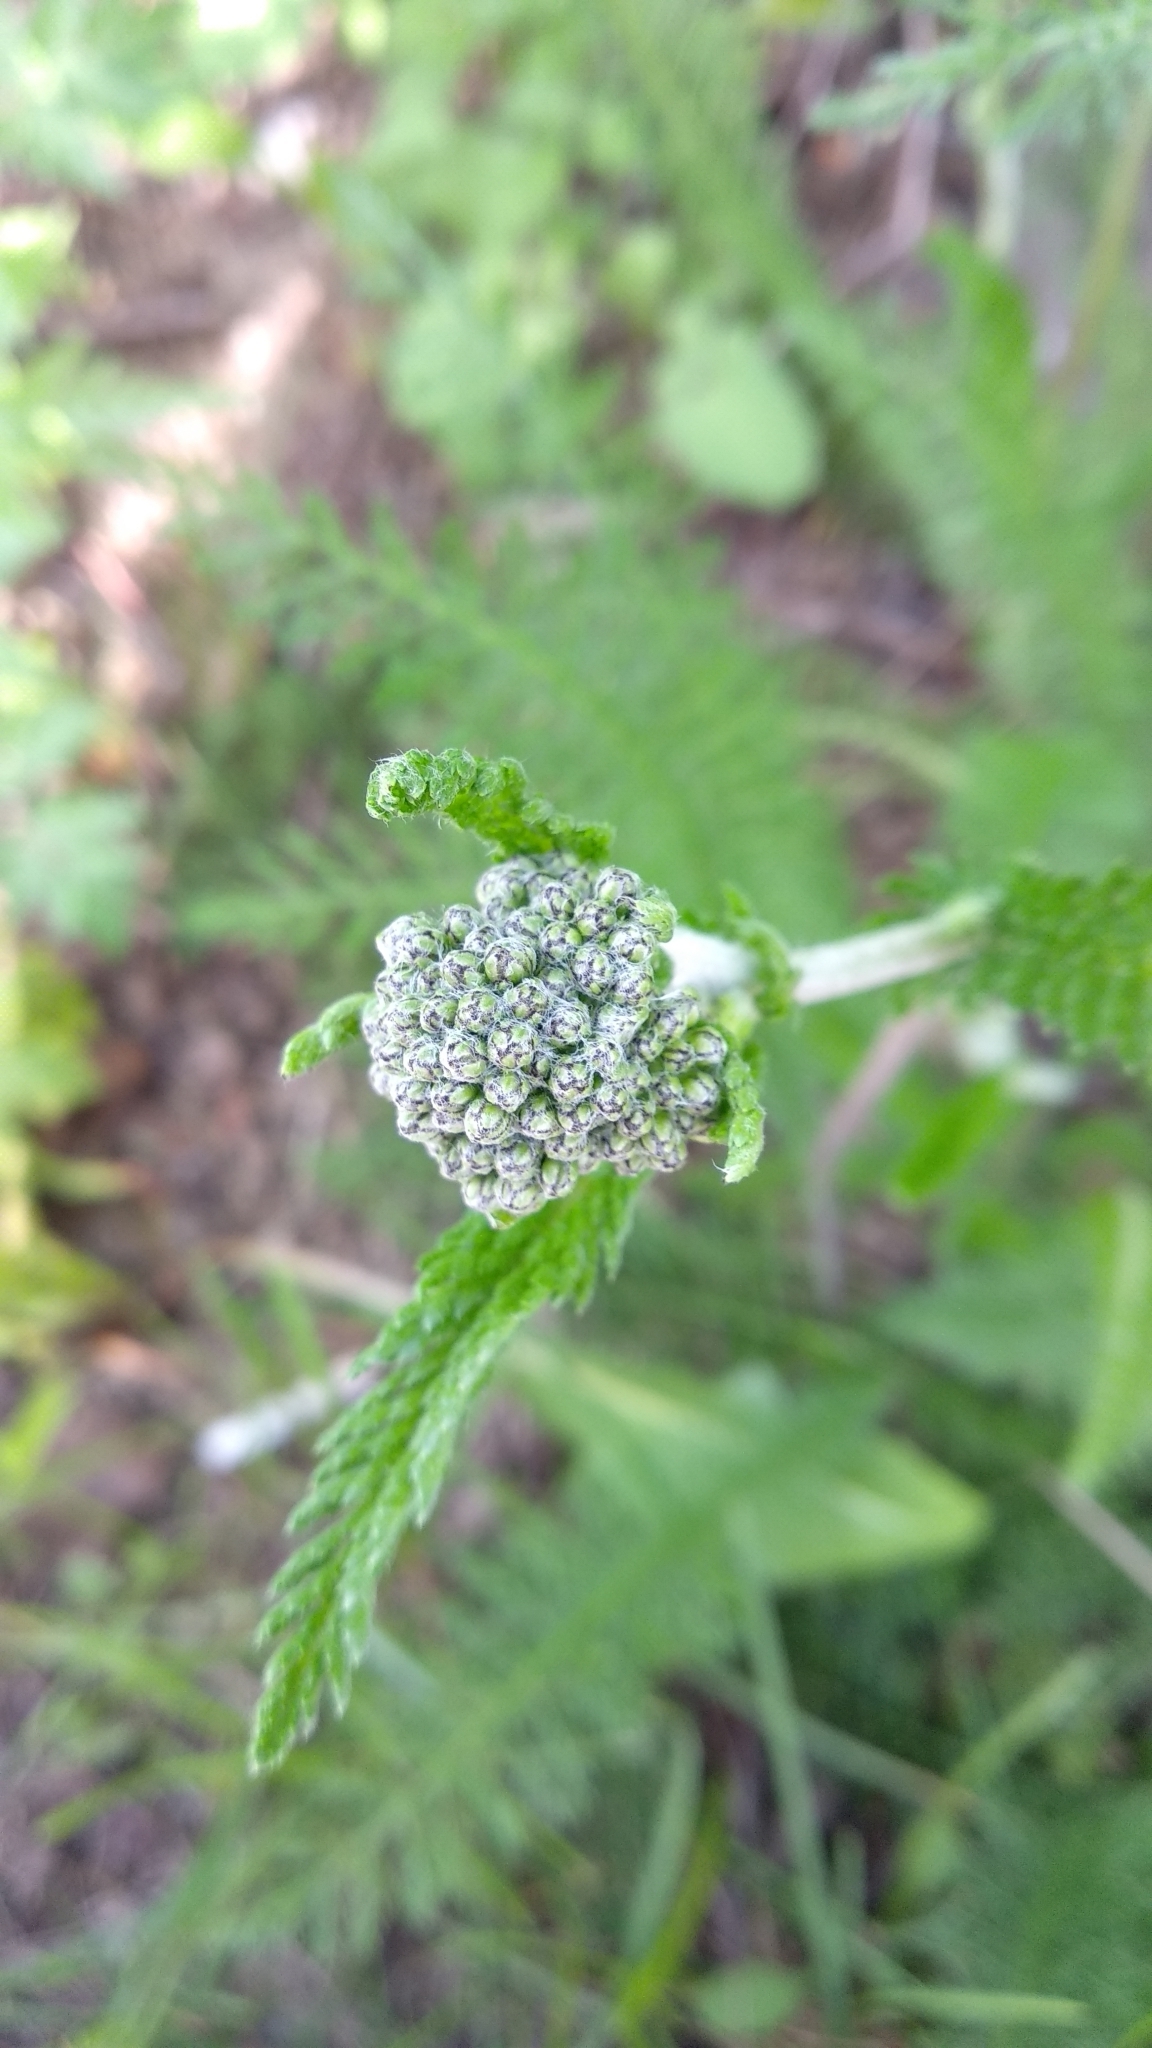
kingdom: Plantae
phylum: Tracheophyta
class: Magnoliopsida
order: Asterales
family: Asteraceae
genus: Achillea
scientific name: Achillea millefolium
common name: Yarrow
